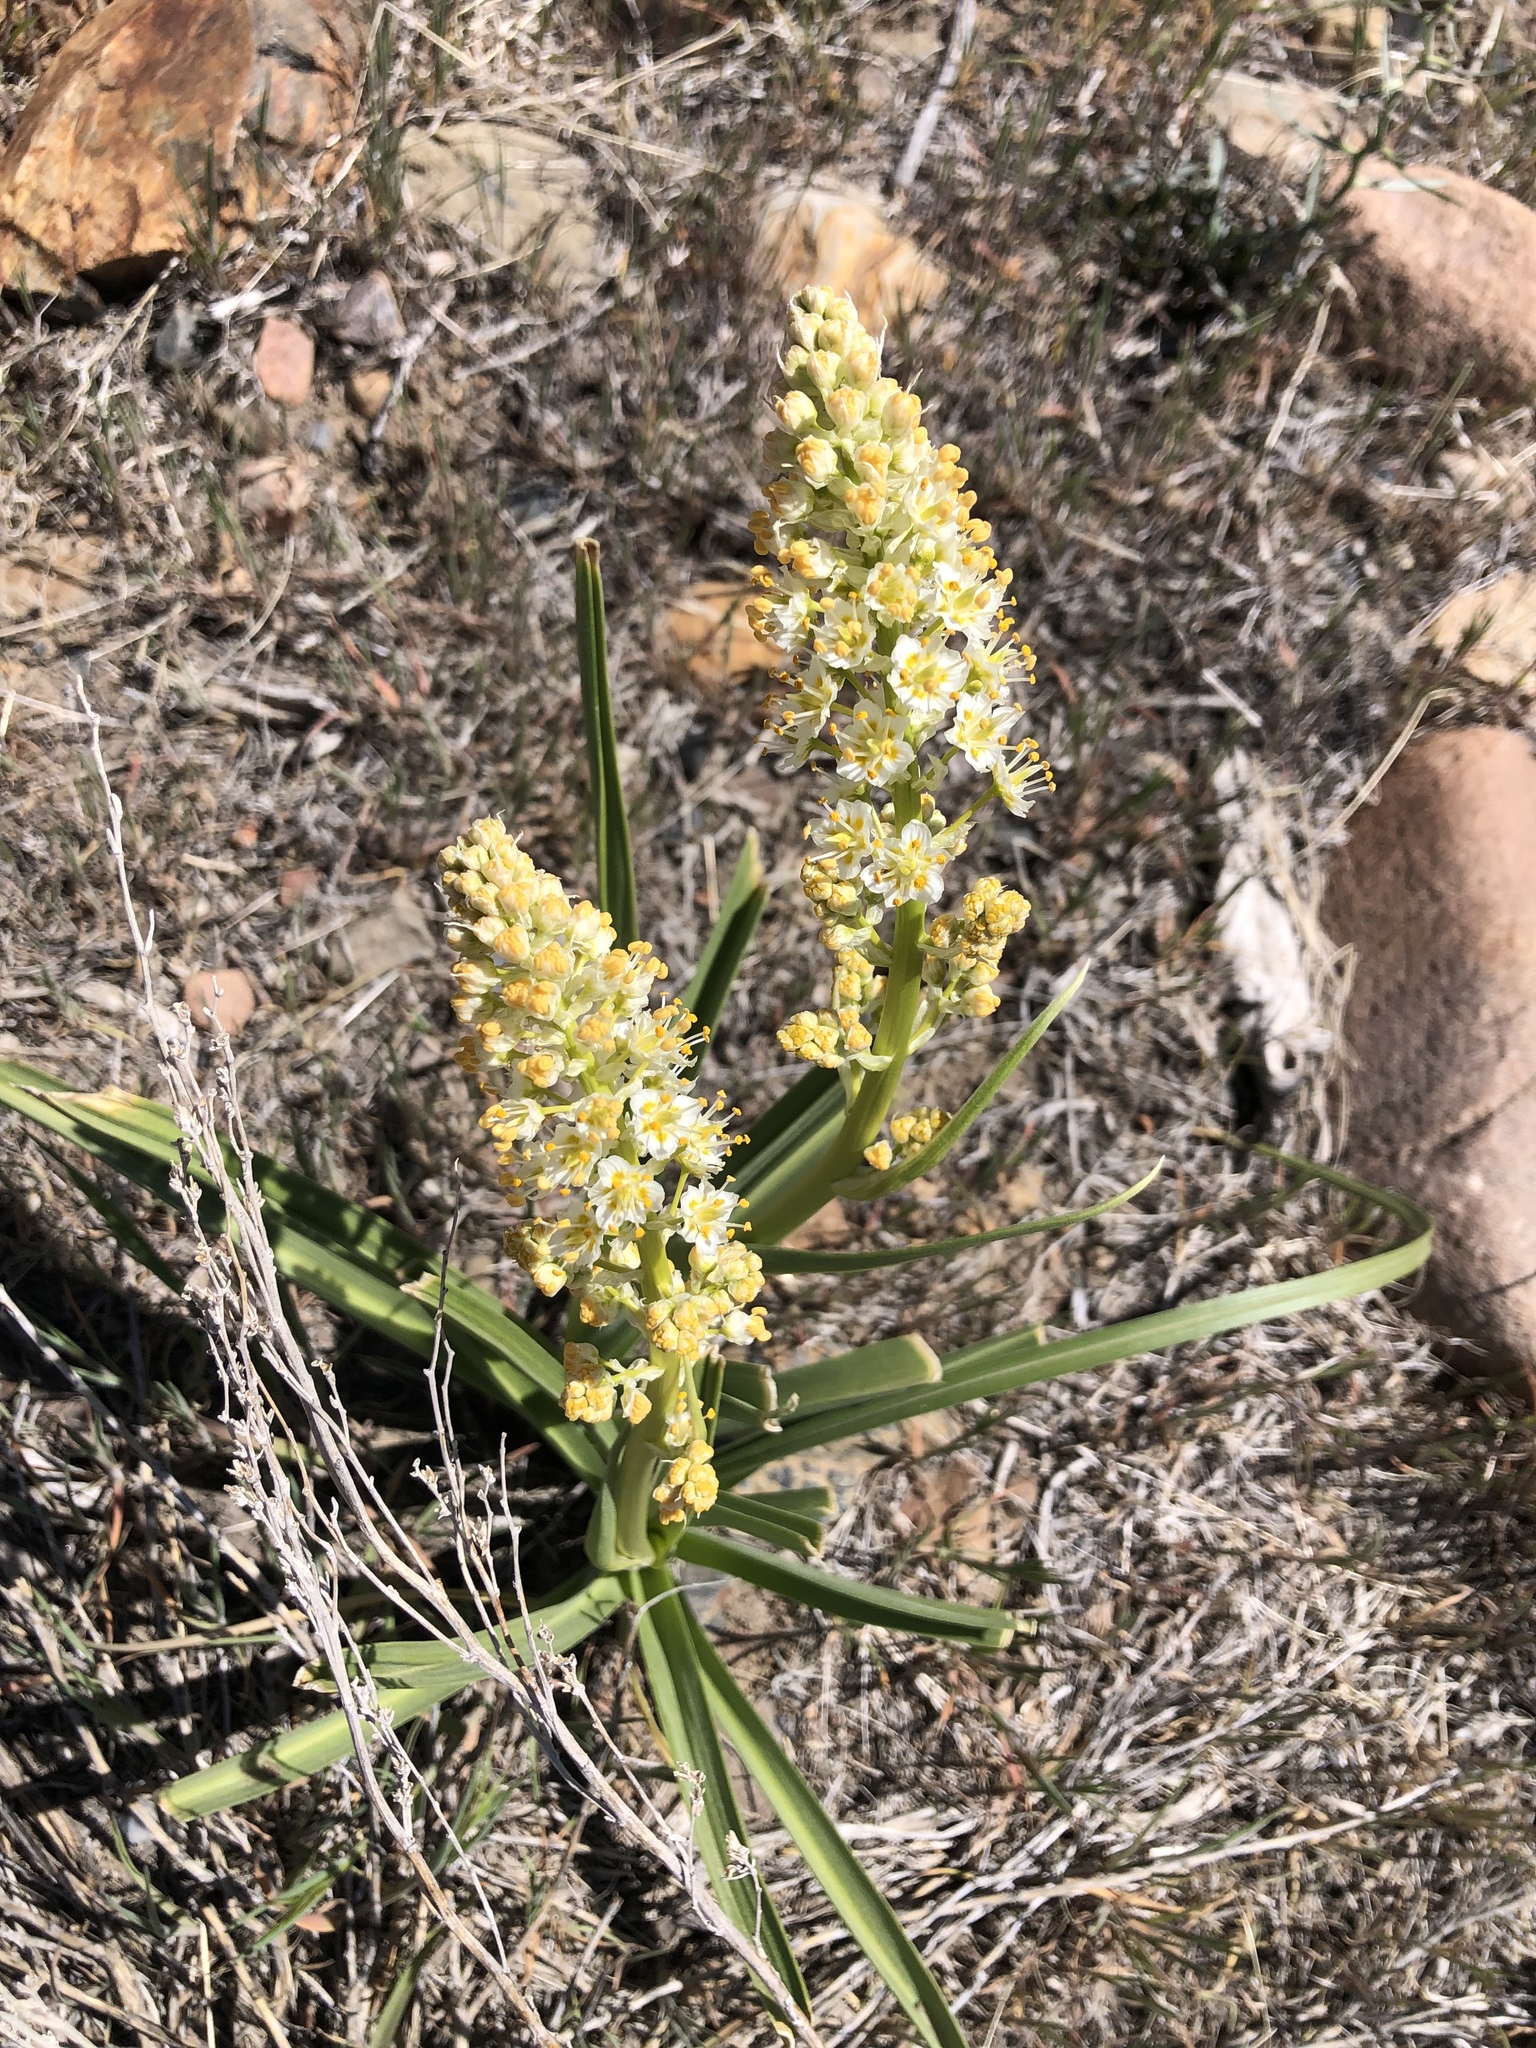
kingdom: Plantae
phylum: Tracheophyta
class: Liliopsida
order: Liliales
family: Melanthiaceae
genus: Toxicoscordion
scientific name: Toxicoscordion paniculatum
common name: Foothill death camas
